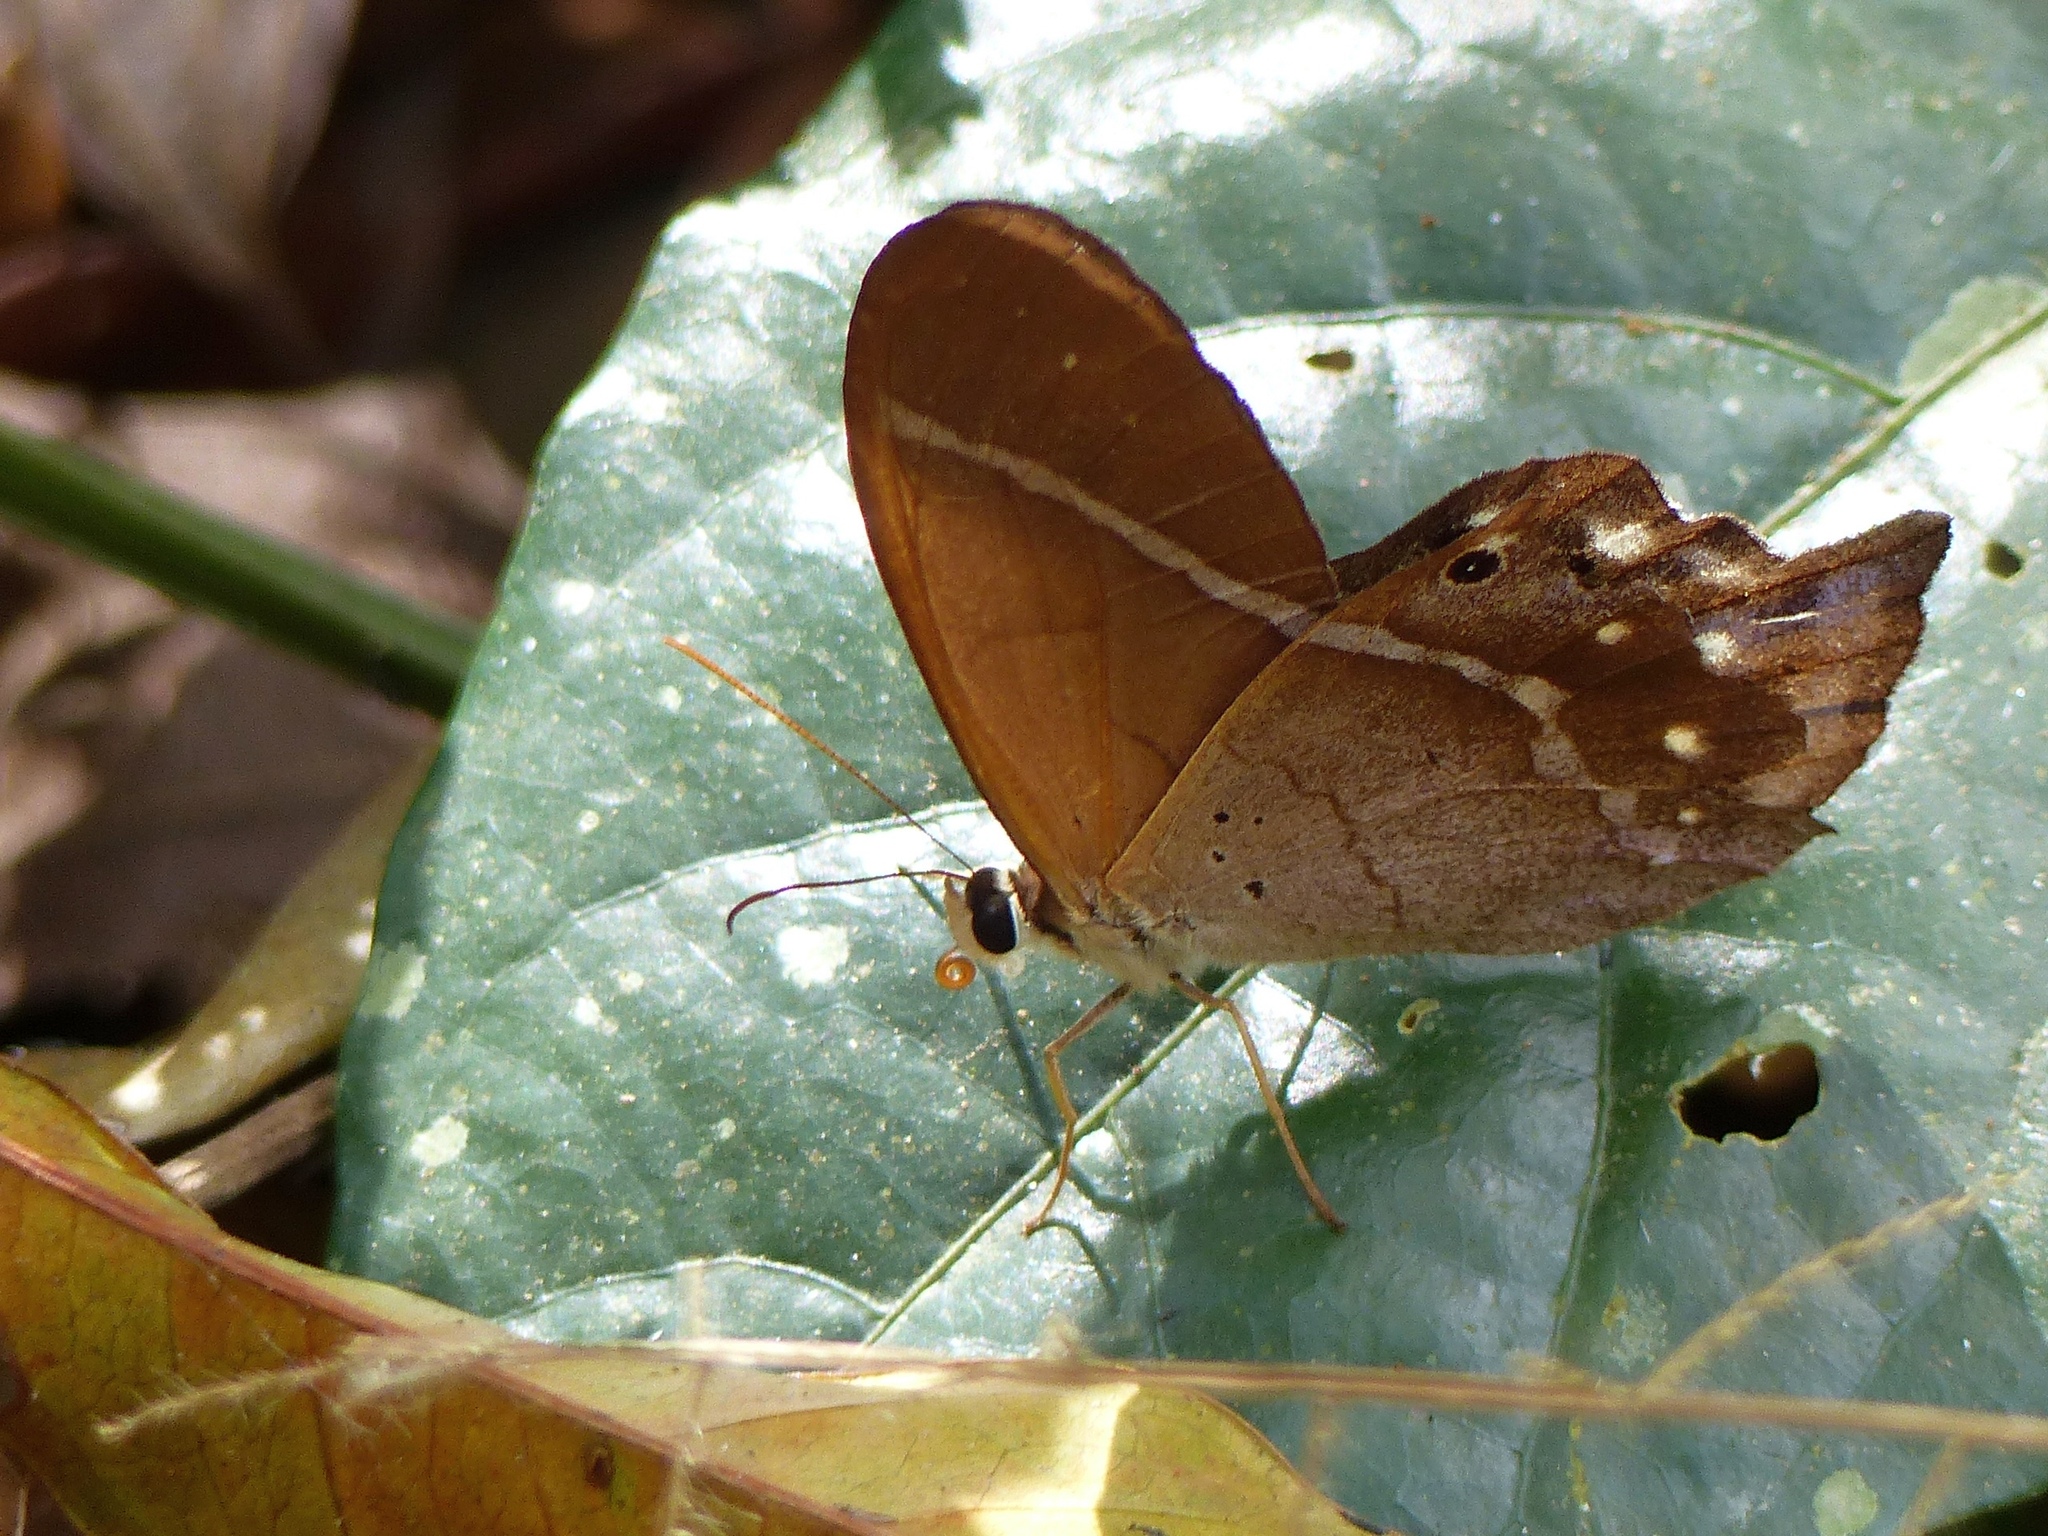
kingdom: Animalia
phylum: Arthropoda
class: Insecta
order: Lepidoptera
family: Nymphalidae
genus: Pierella
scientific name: Pierella dracontis
